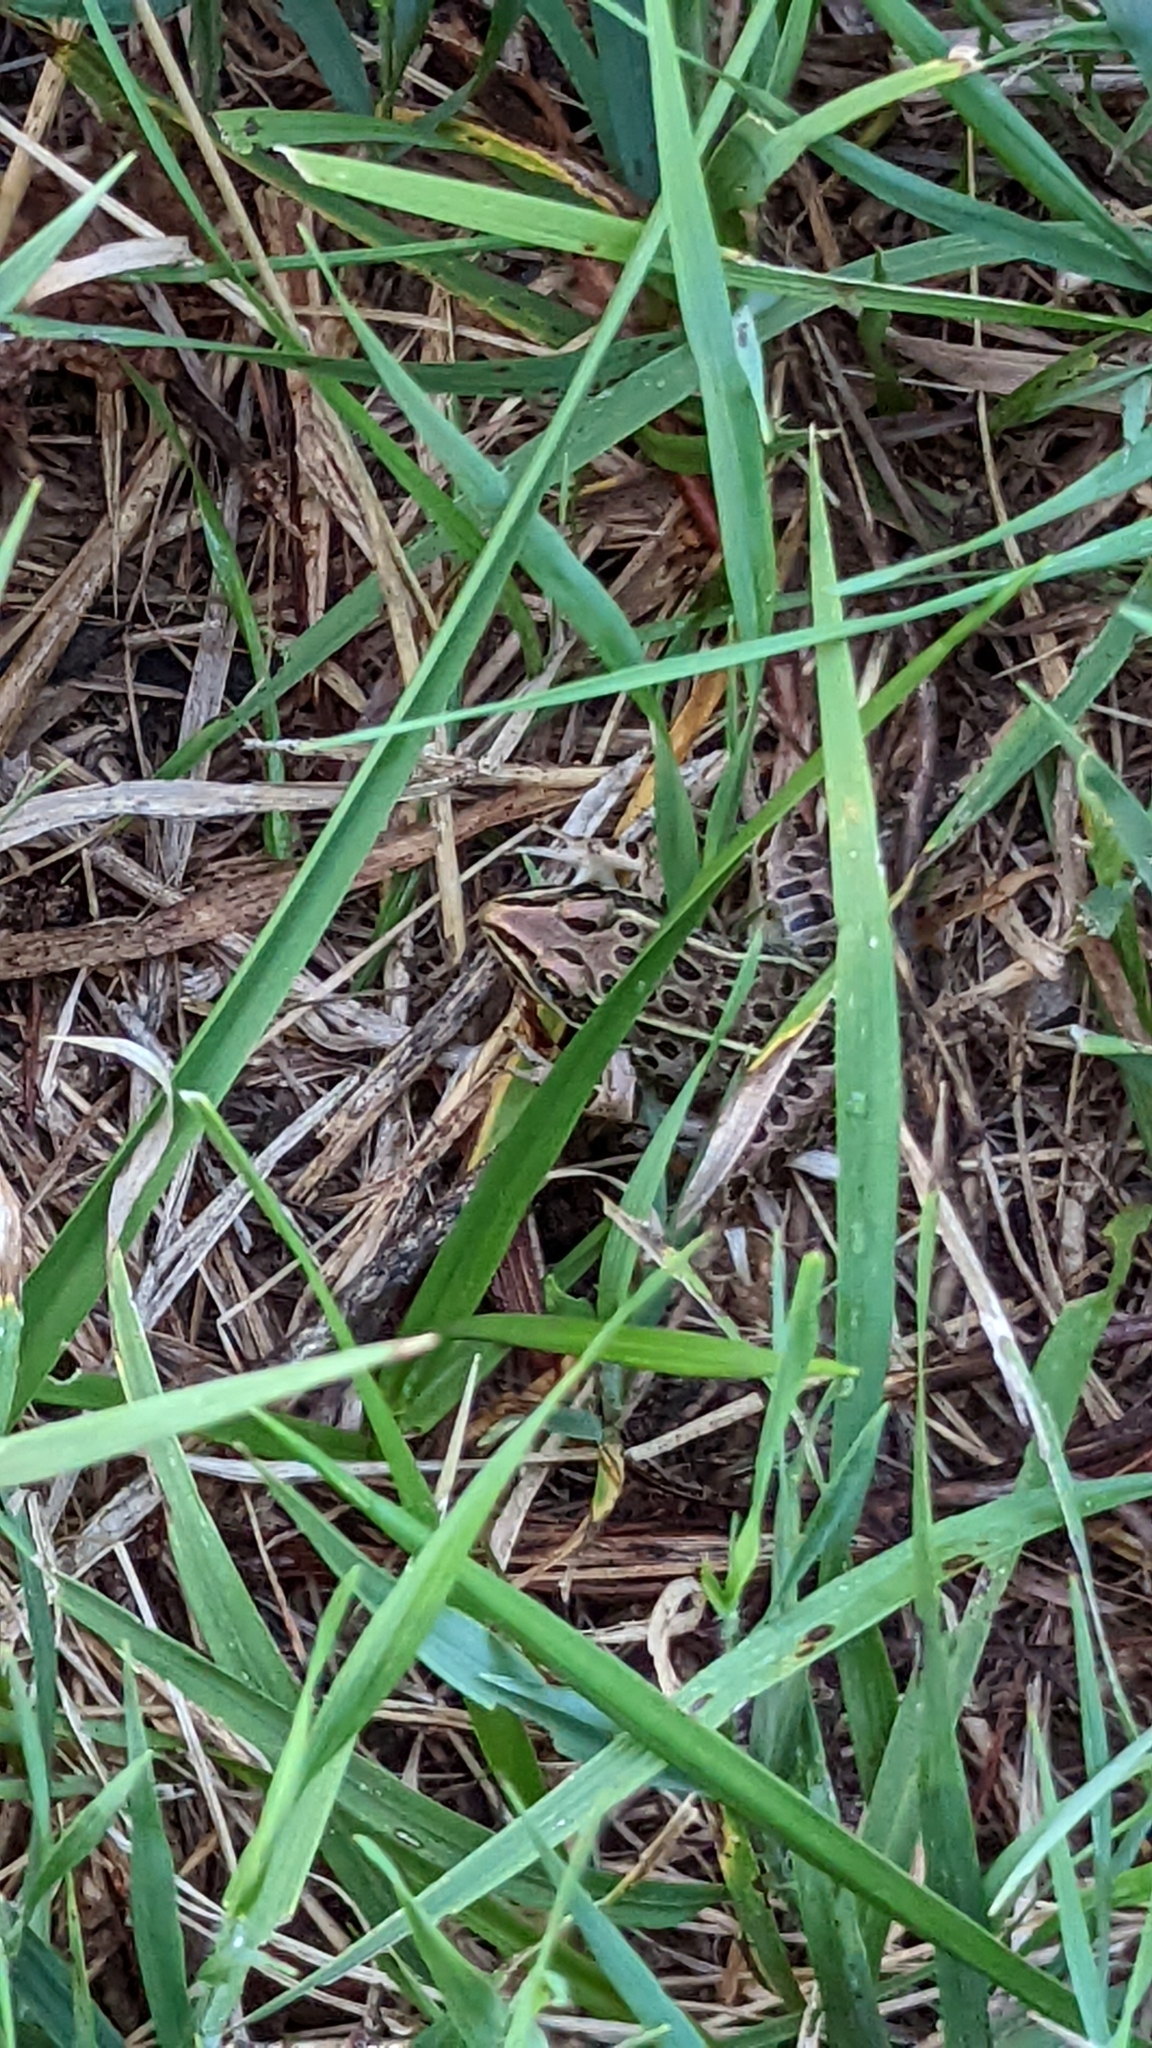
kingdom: Animalia
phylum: Chordata
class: Amphibia
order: Anura
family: Ranidae
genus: Lithobates
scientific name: Lithobates pipiens
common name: Northern leopard frog
